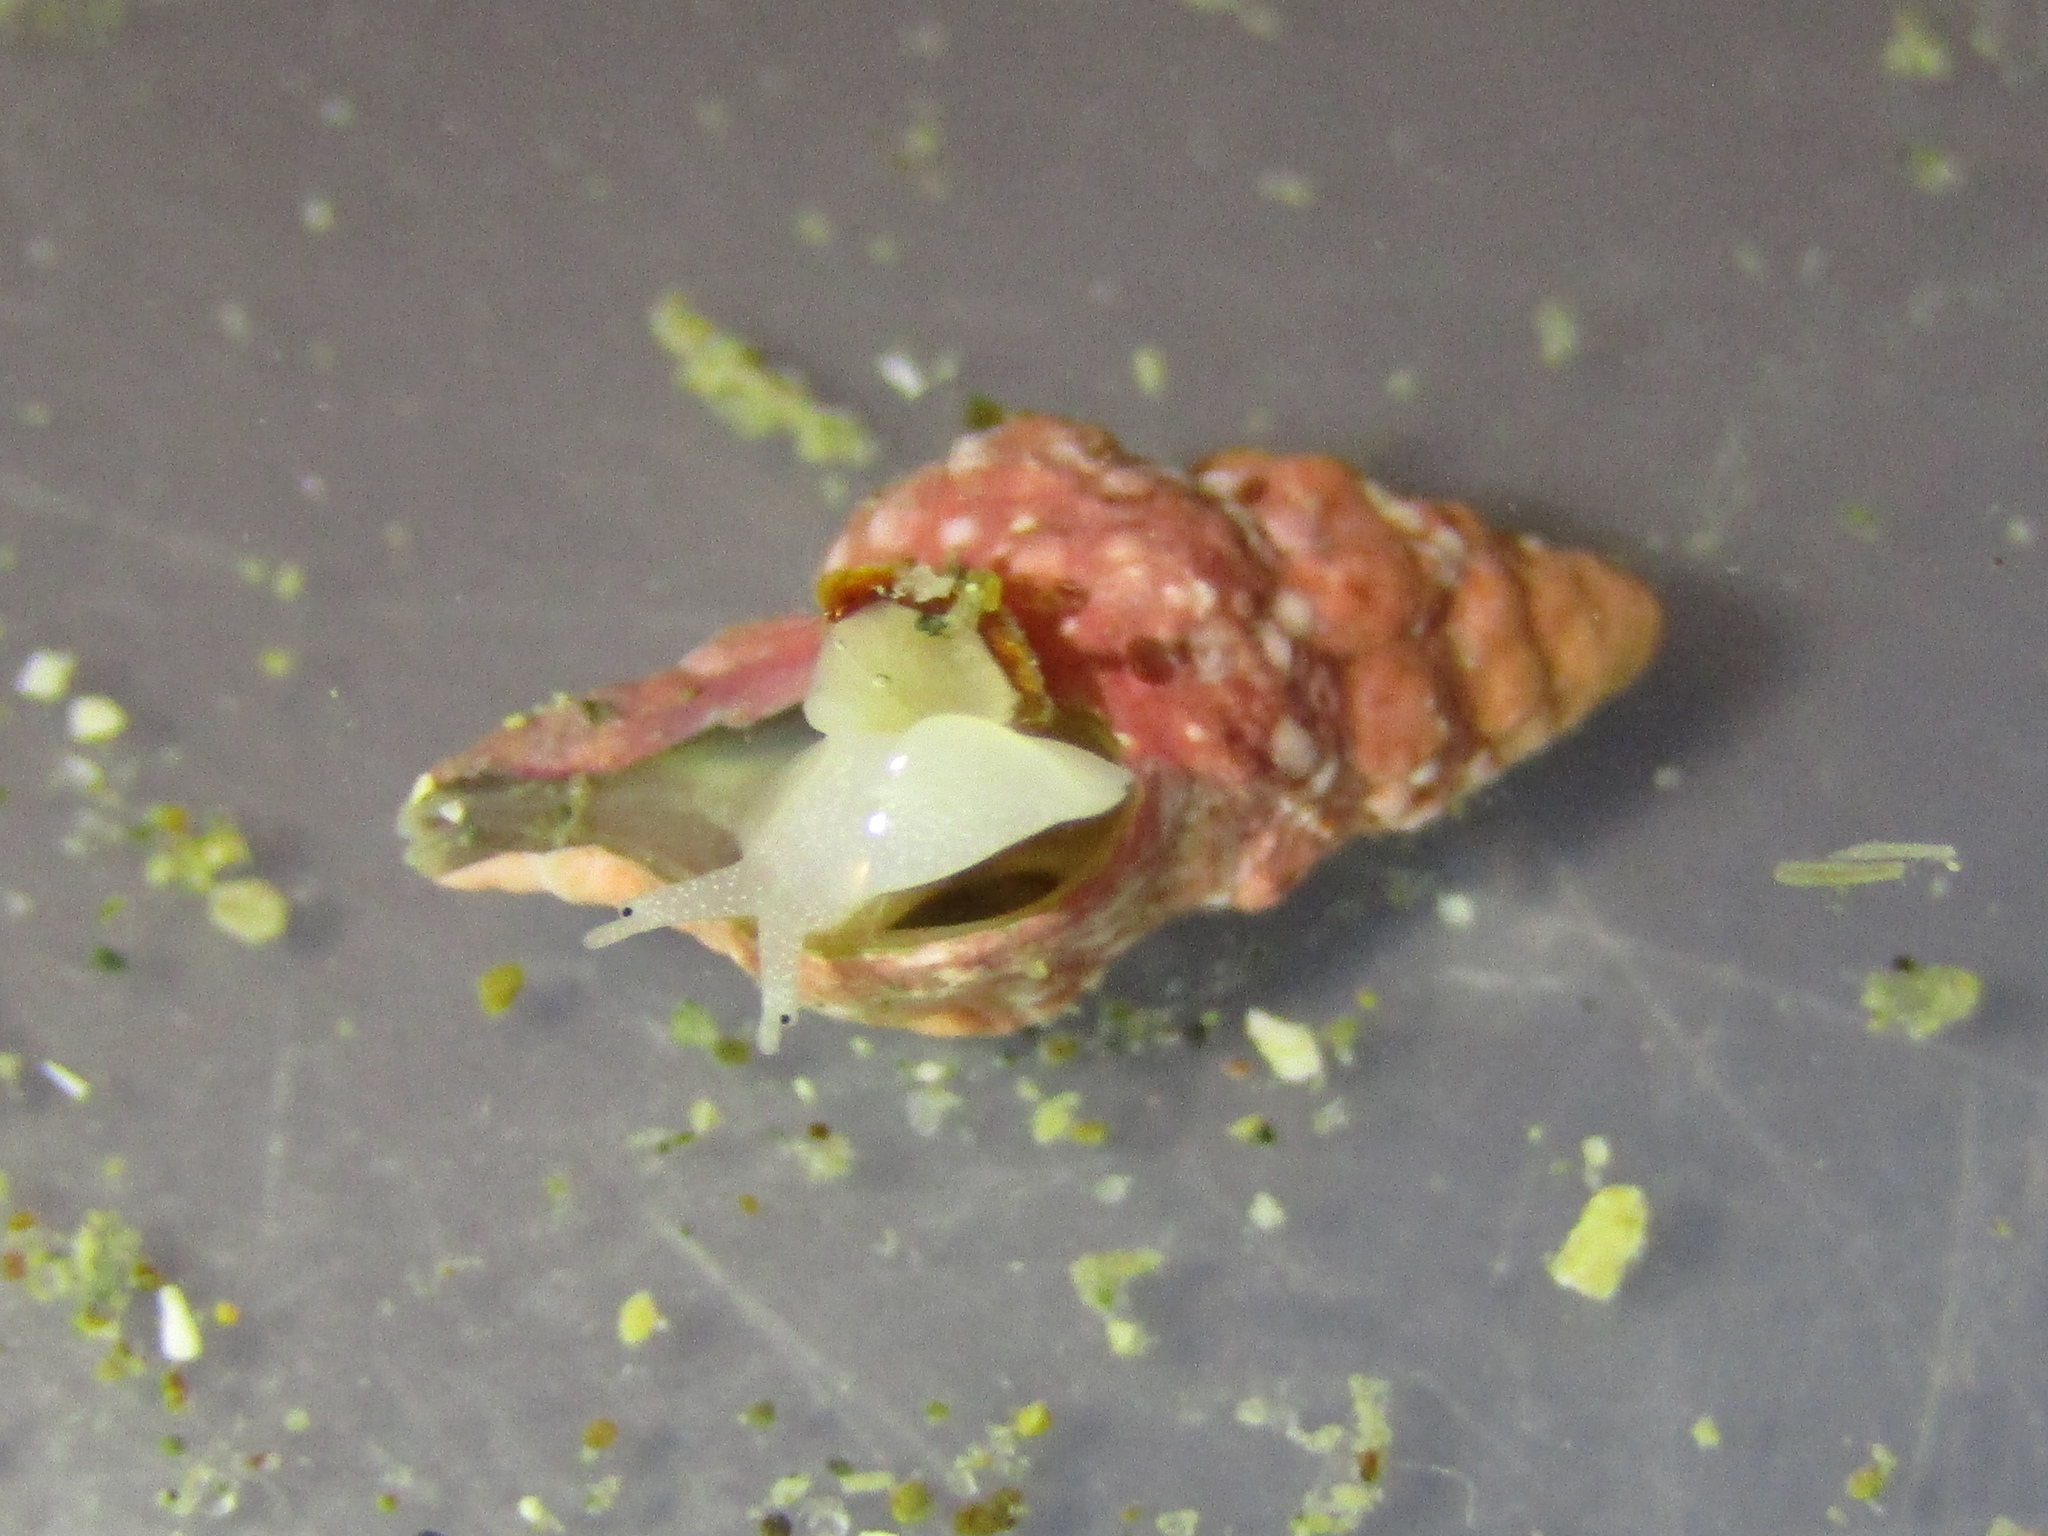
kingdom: Animalia
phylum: Mollusca
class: Gastropoda
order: Neogastropoda
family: Muricidae
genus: Axymene
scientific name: Axymene
